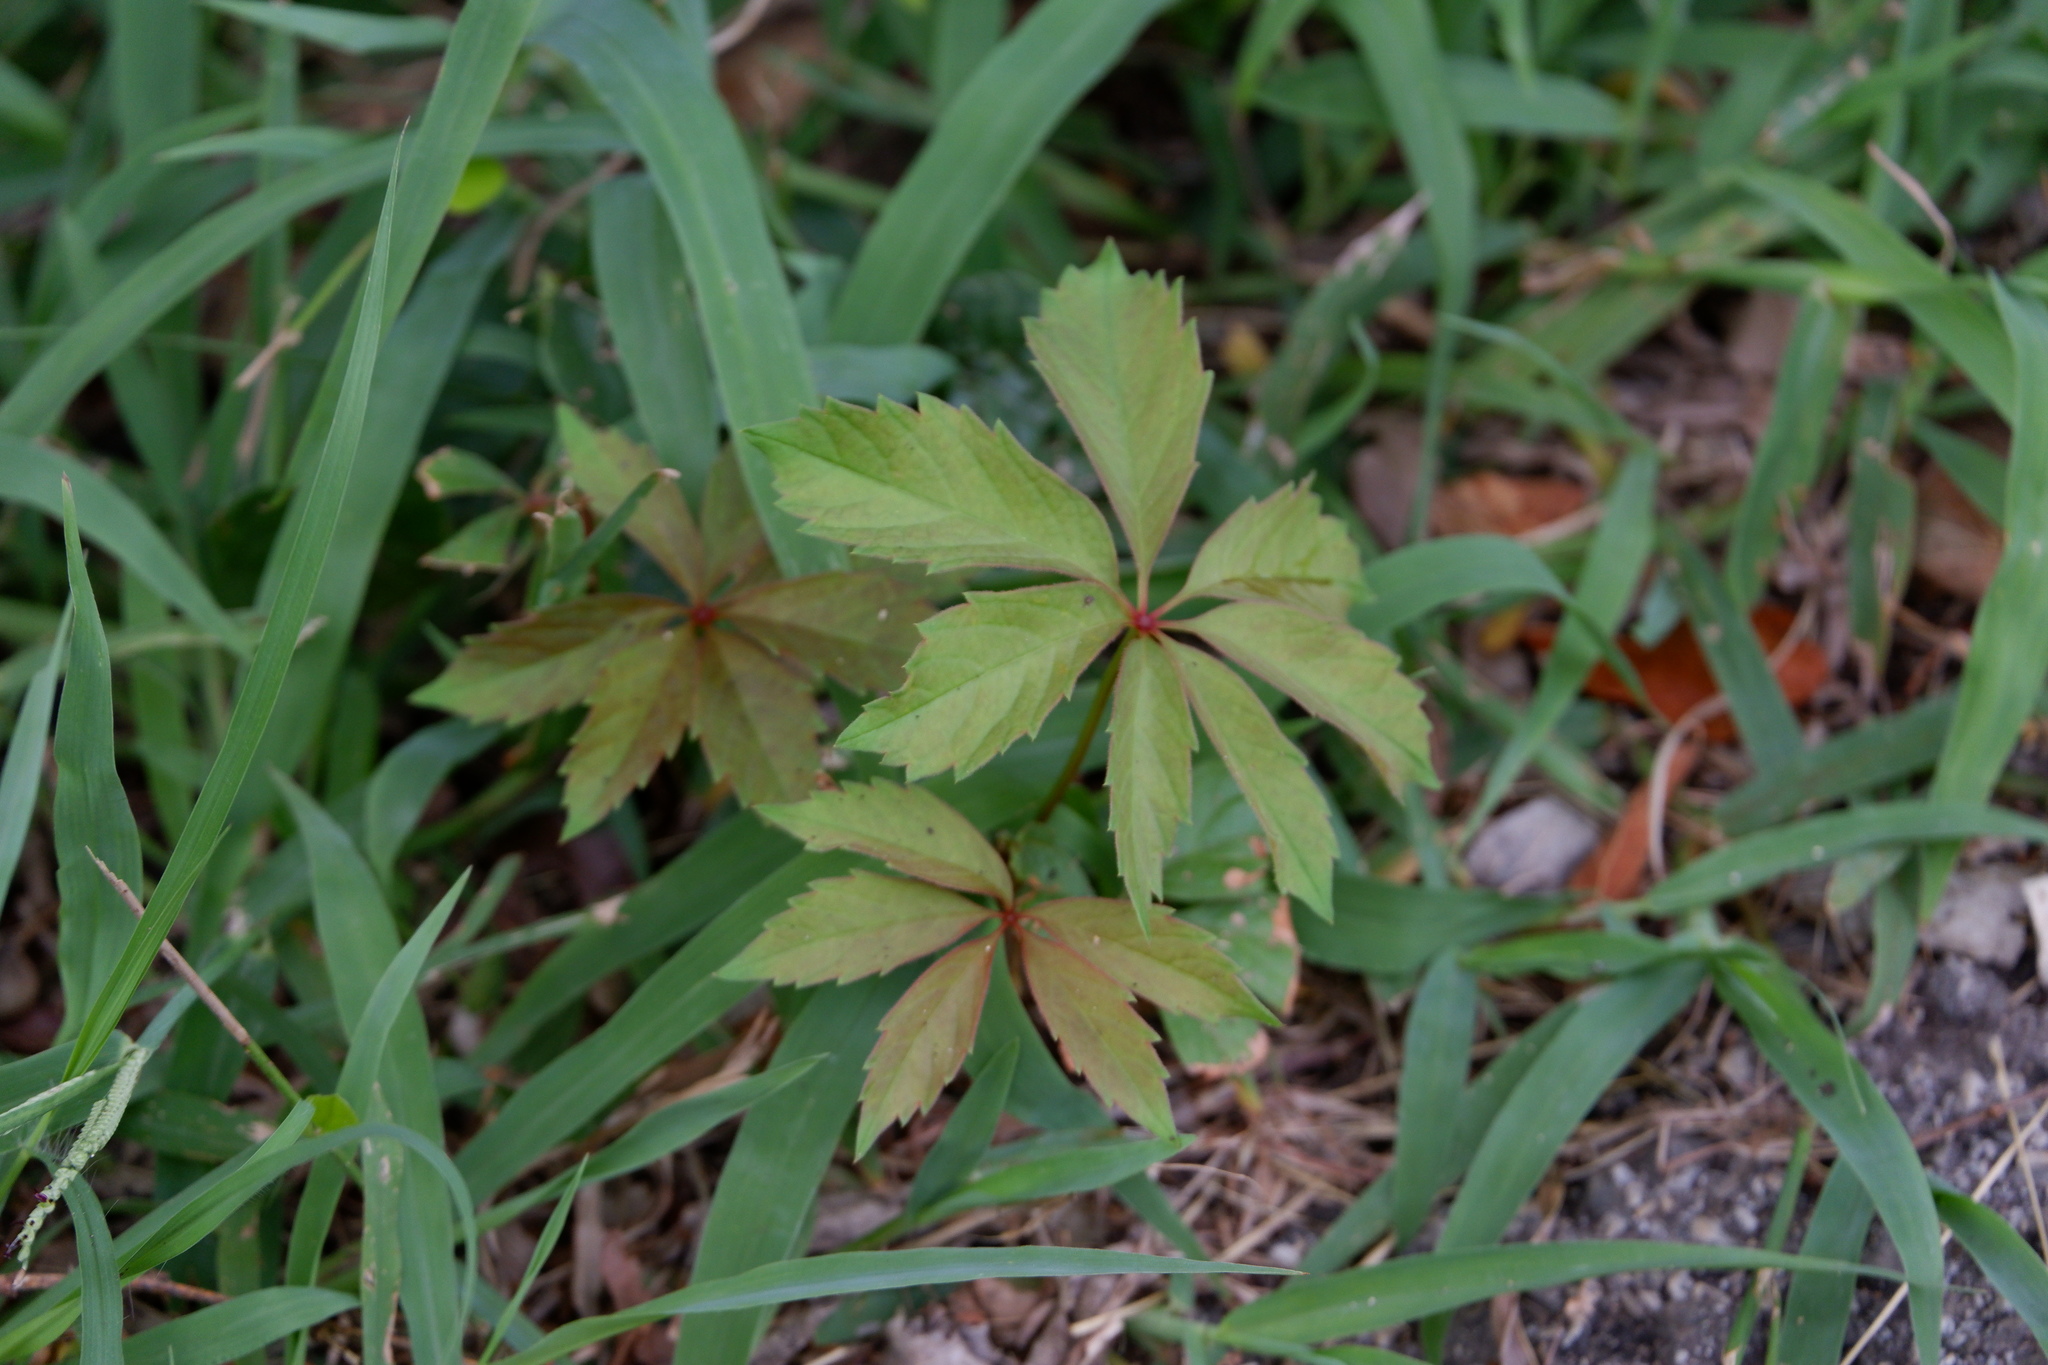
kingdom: Plantae
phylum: Tracheophyta
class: Magnoliopsida
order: Vitales
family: Vitaceae
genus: Parthenocissus
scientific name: Parthenocissus quinquefolia
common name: Virginia-creeper
